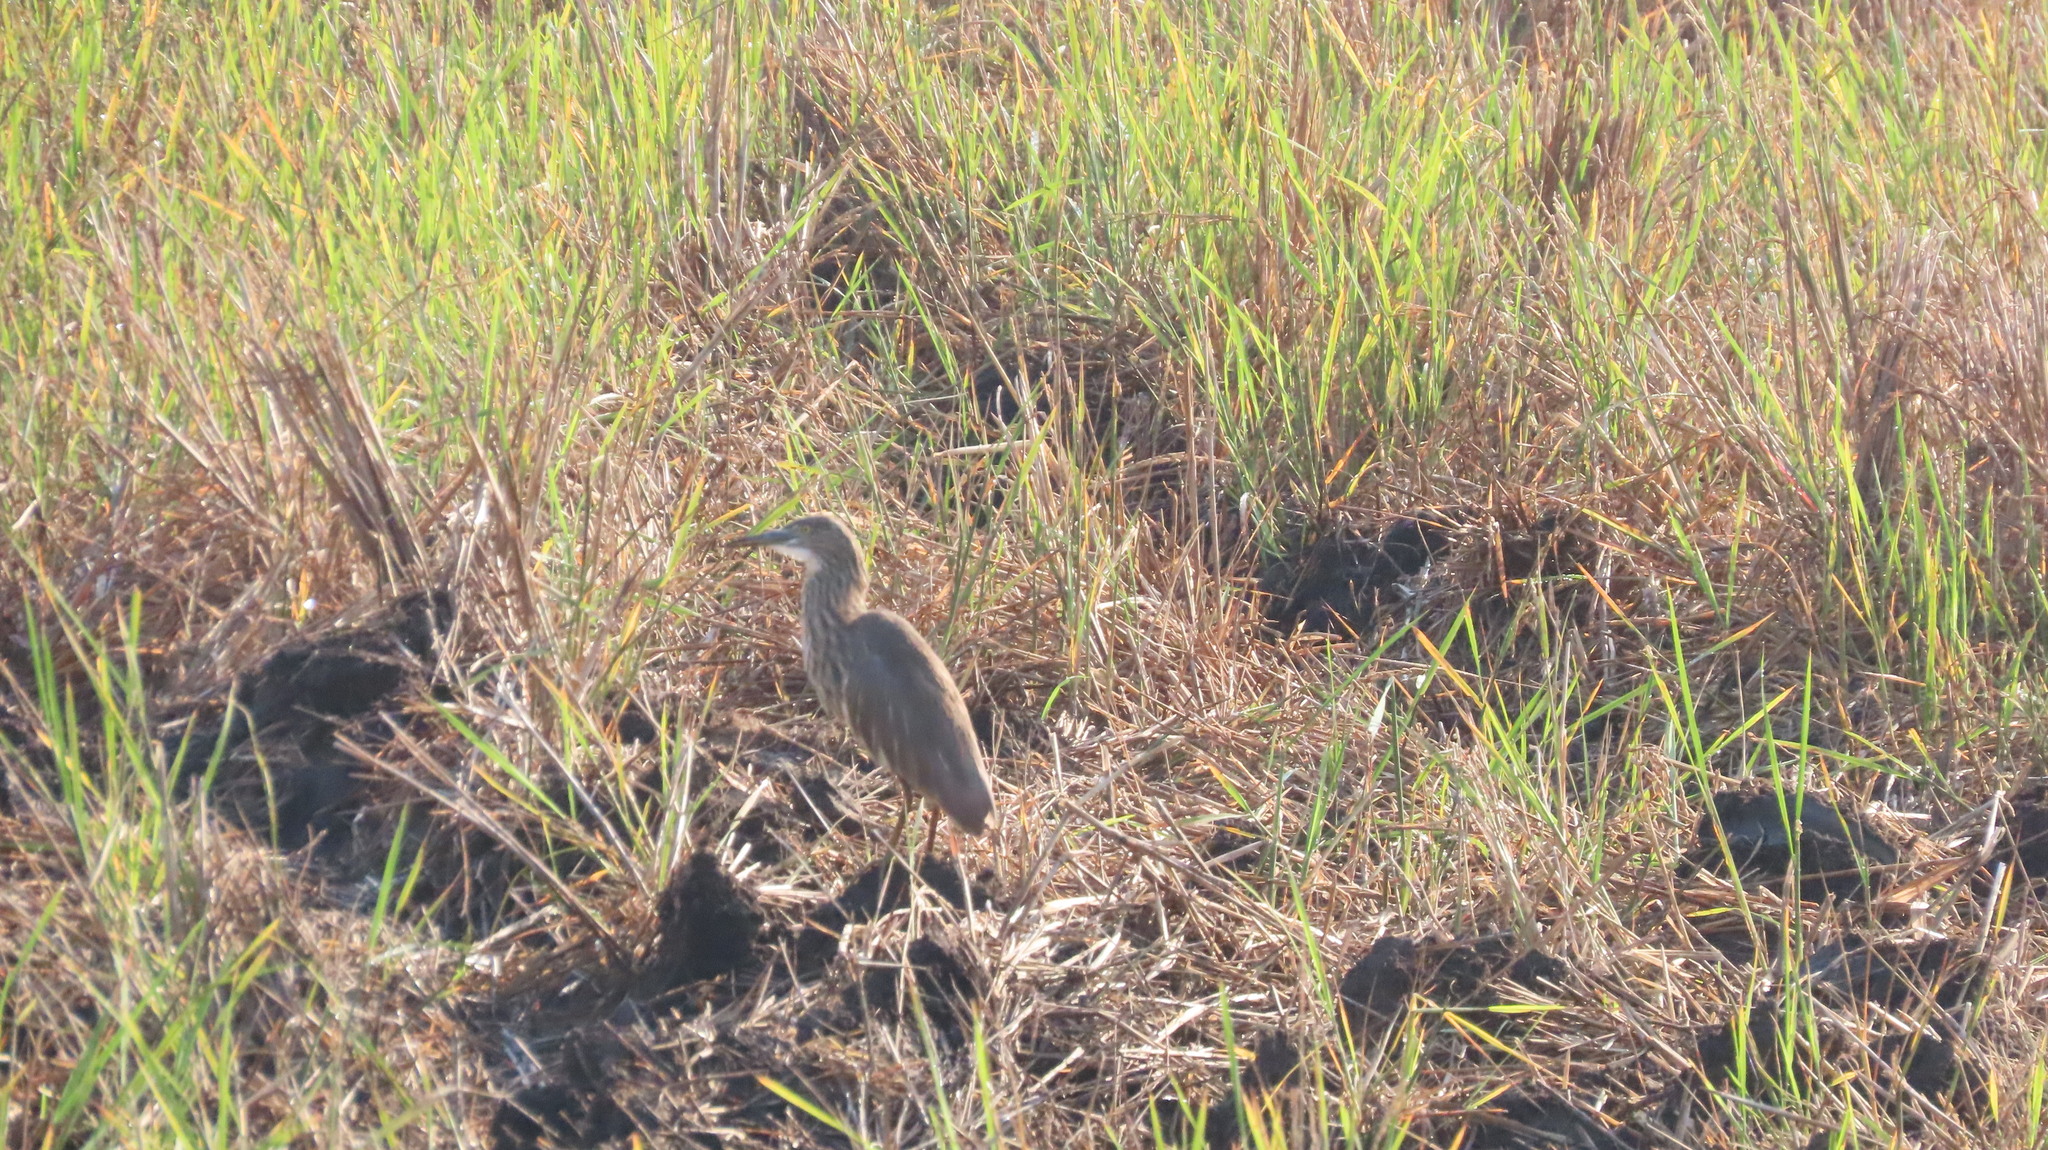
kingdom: Animalia
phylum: Chordata
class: Aves
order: Pelecaniformes
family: Ardeidae
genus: Ardeola
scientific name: Ardeola grayii
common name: Indian pond heron
